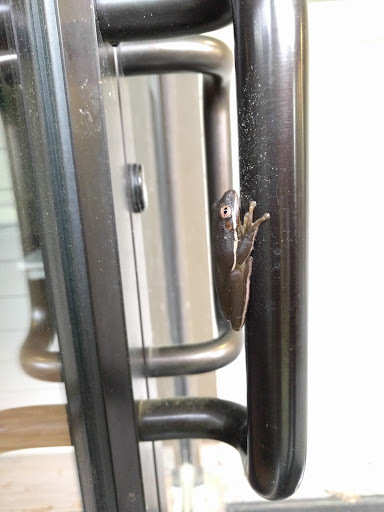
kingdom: Animalia
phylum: Chordata
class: Amphibia
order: Anura
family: Hylidae
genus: Dryophytes
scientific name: Dryophytes cinereus
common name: Green treefrog
